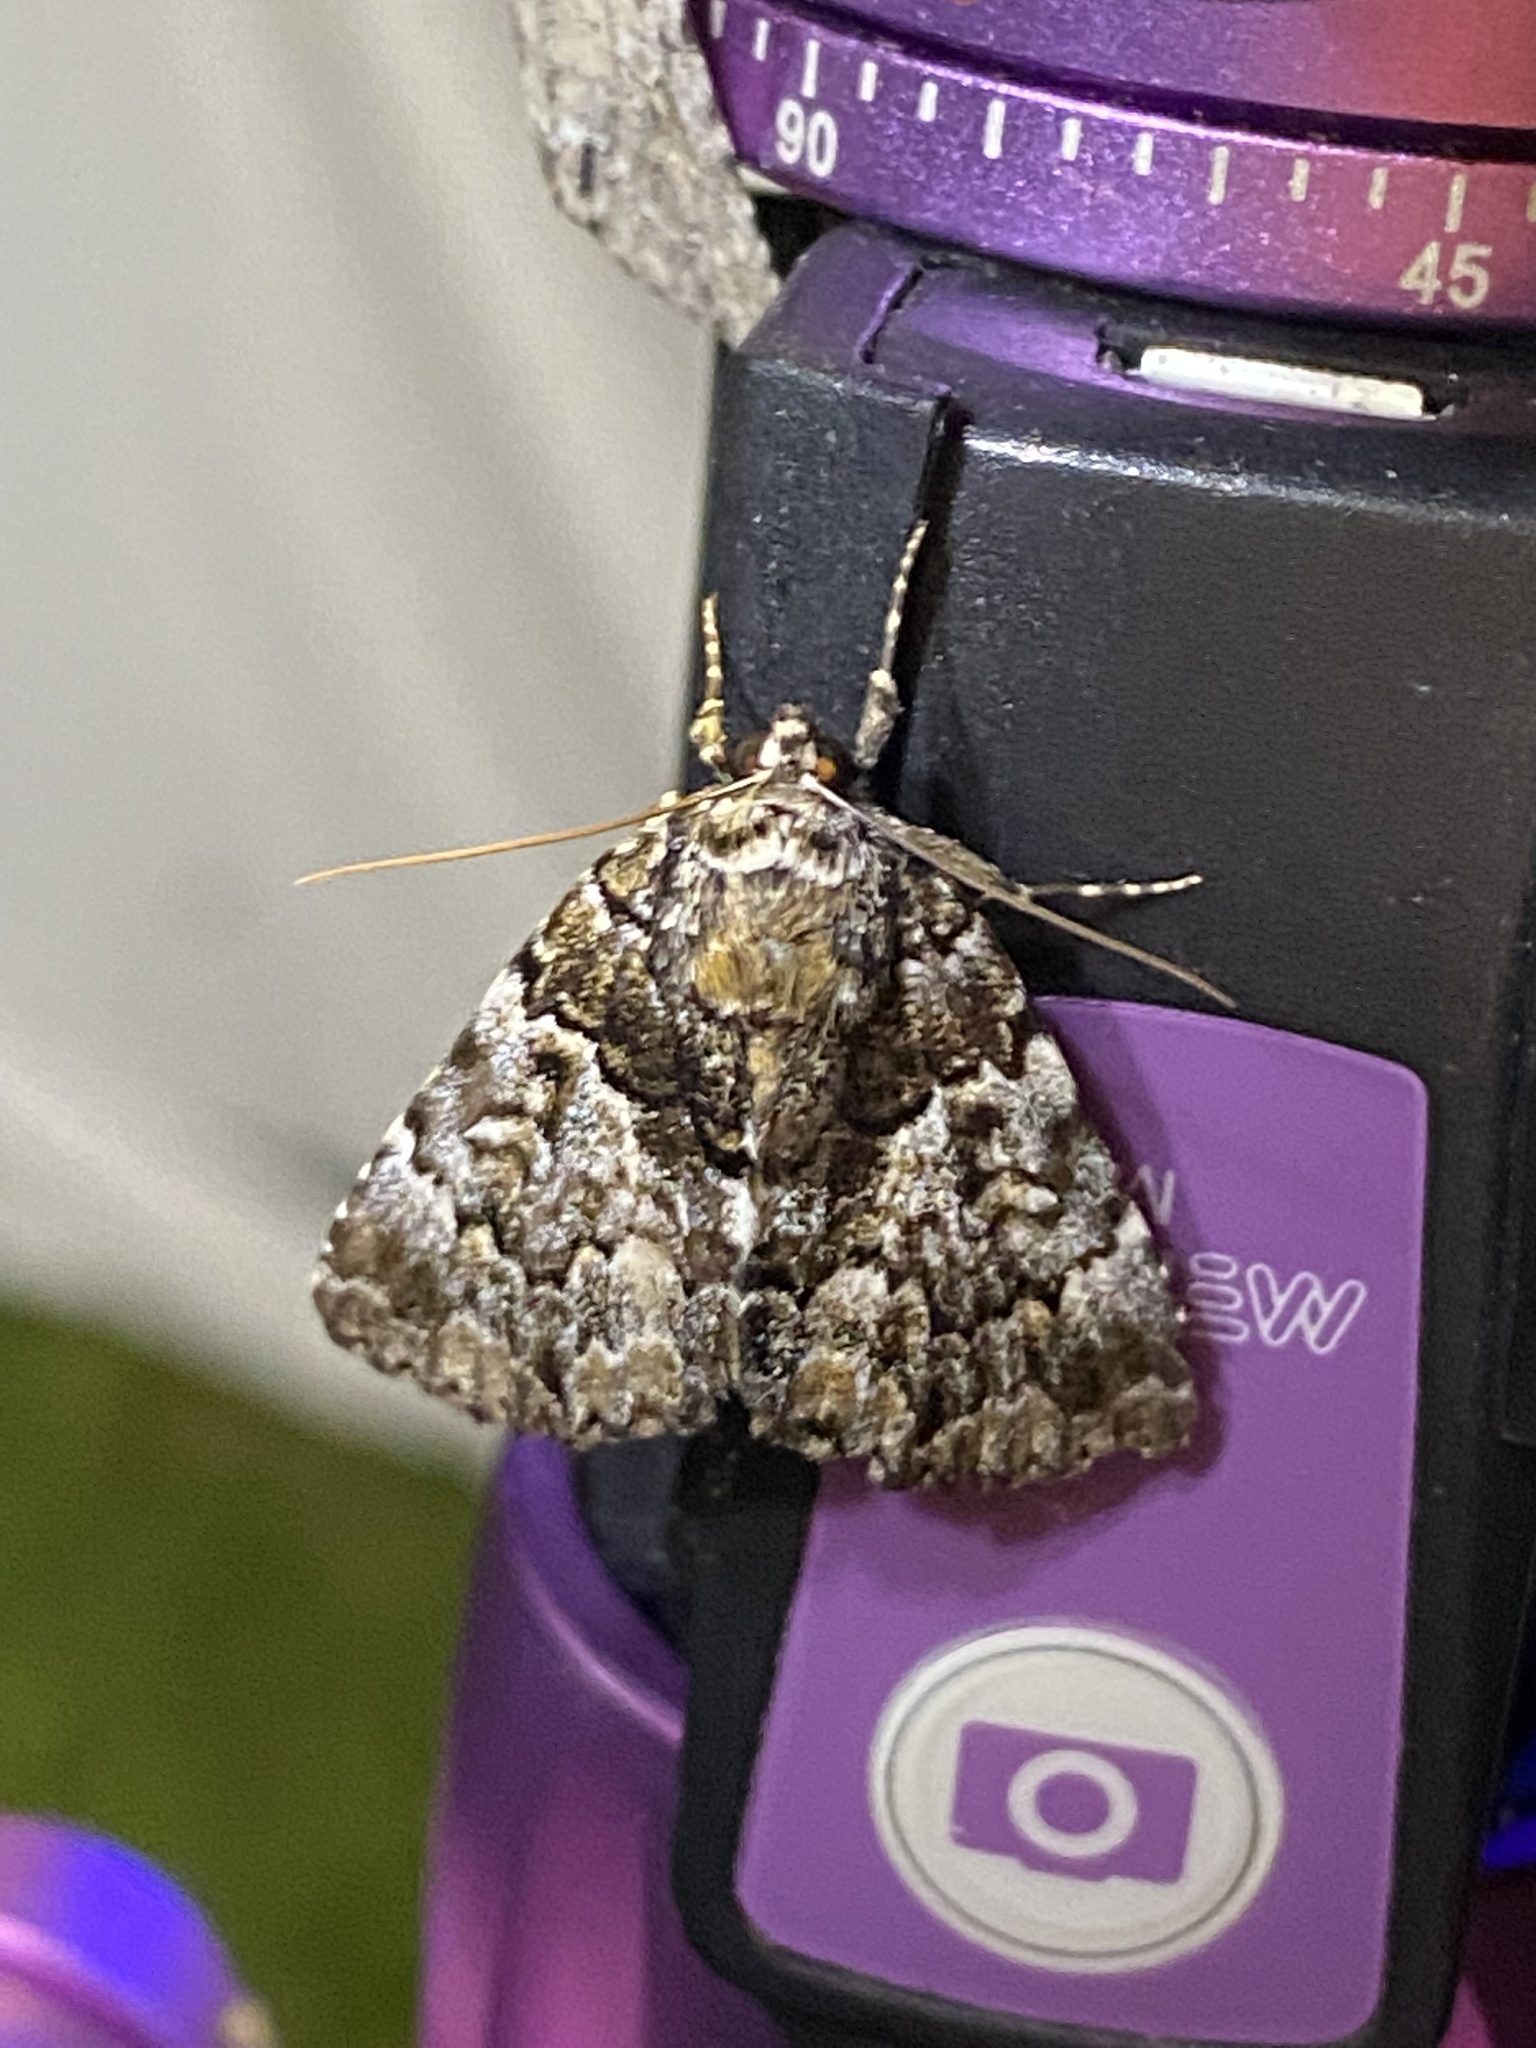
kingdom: Animalia
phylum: Arthropoda
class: Insecta
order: Lepidoptera
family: Erebidae
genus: Allotria
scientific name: Allotria elonympha
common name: False underwing
